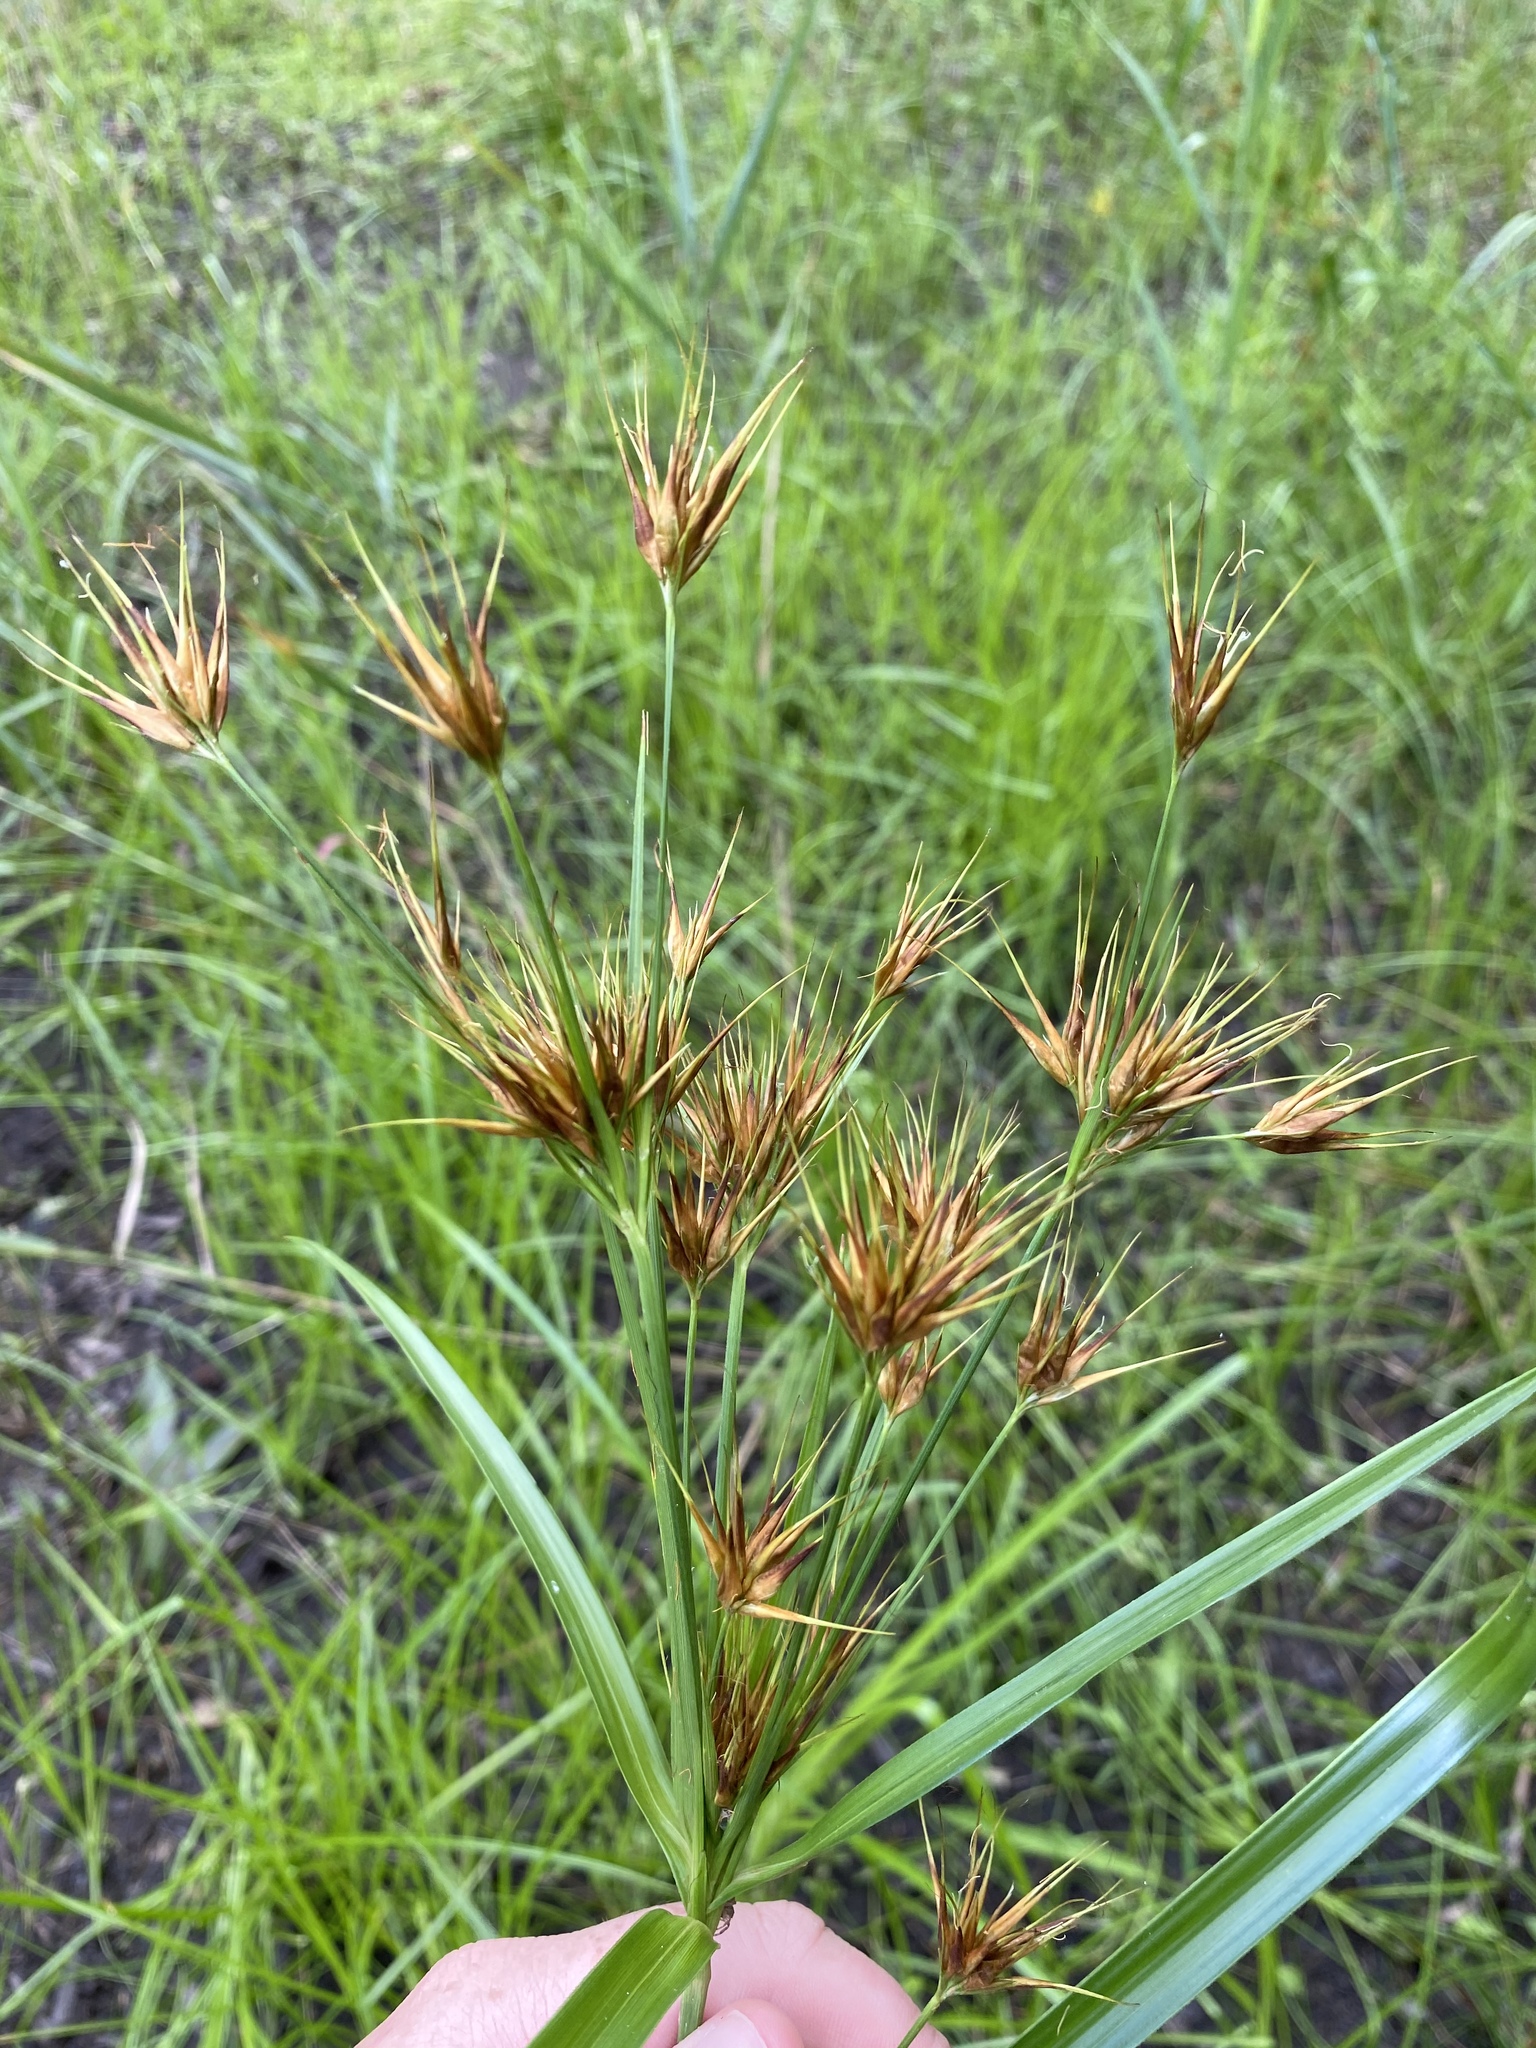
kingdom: Plantae
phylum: Tracheophyta
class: Liliopsida
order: Poales
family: Cyperaceae
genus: Rhynchospora
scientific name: Rhynchospora macrostachya
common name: Tall beakrush
